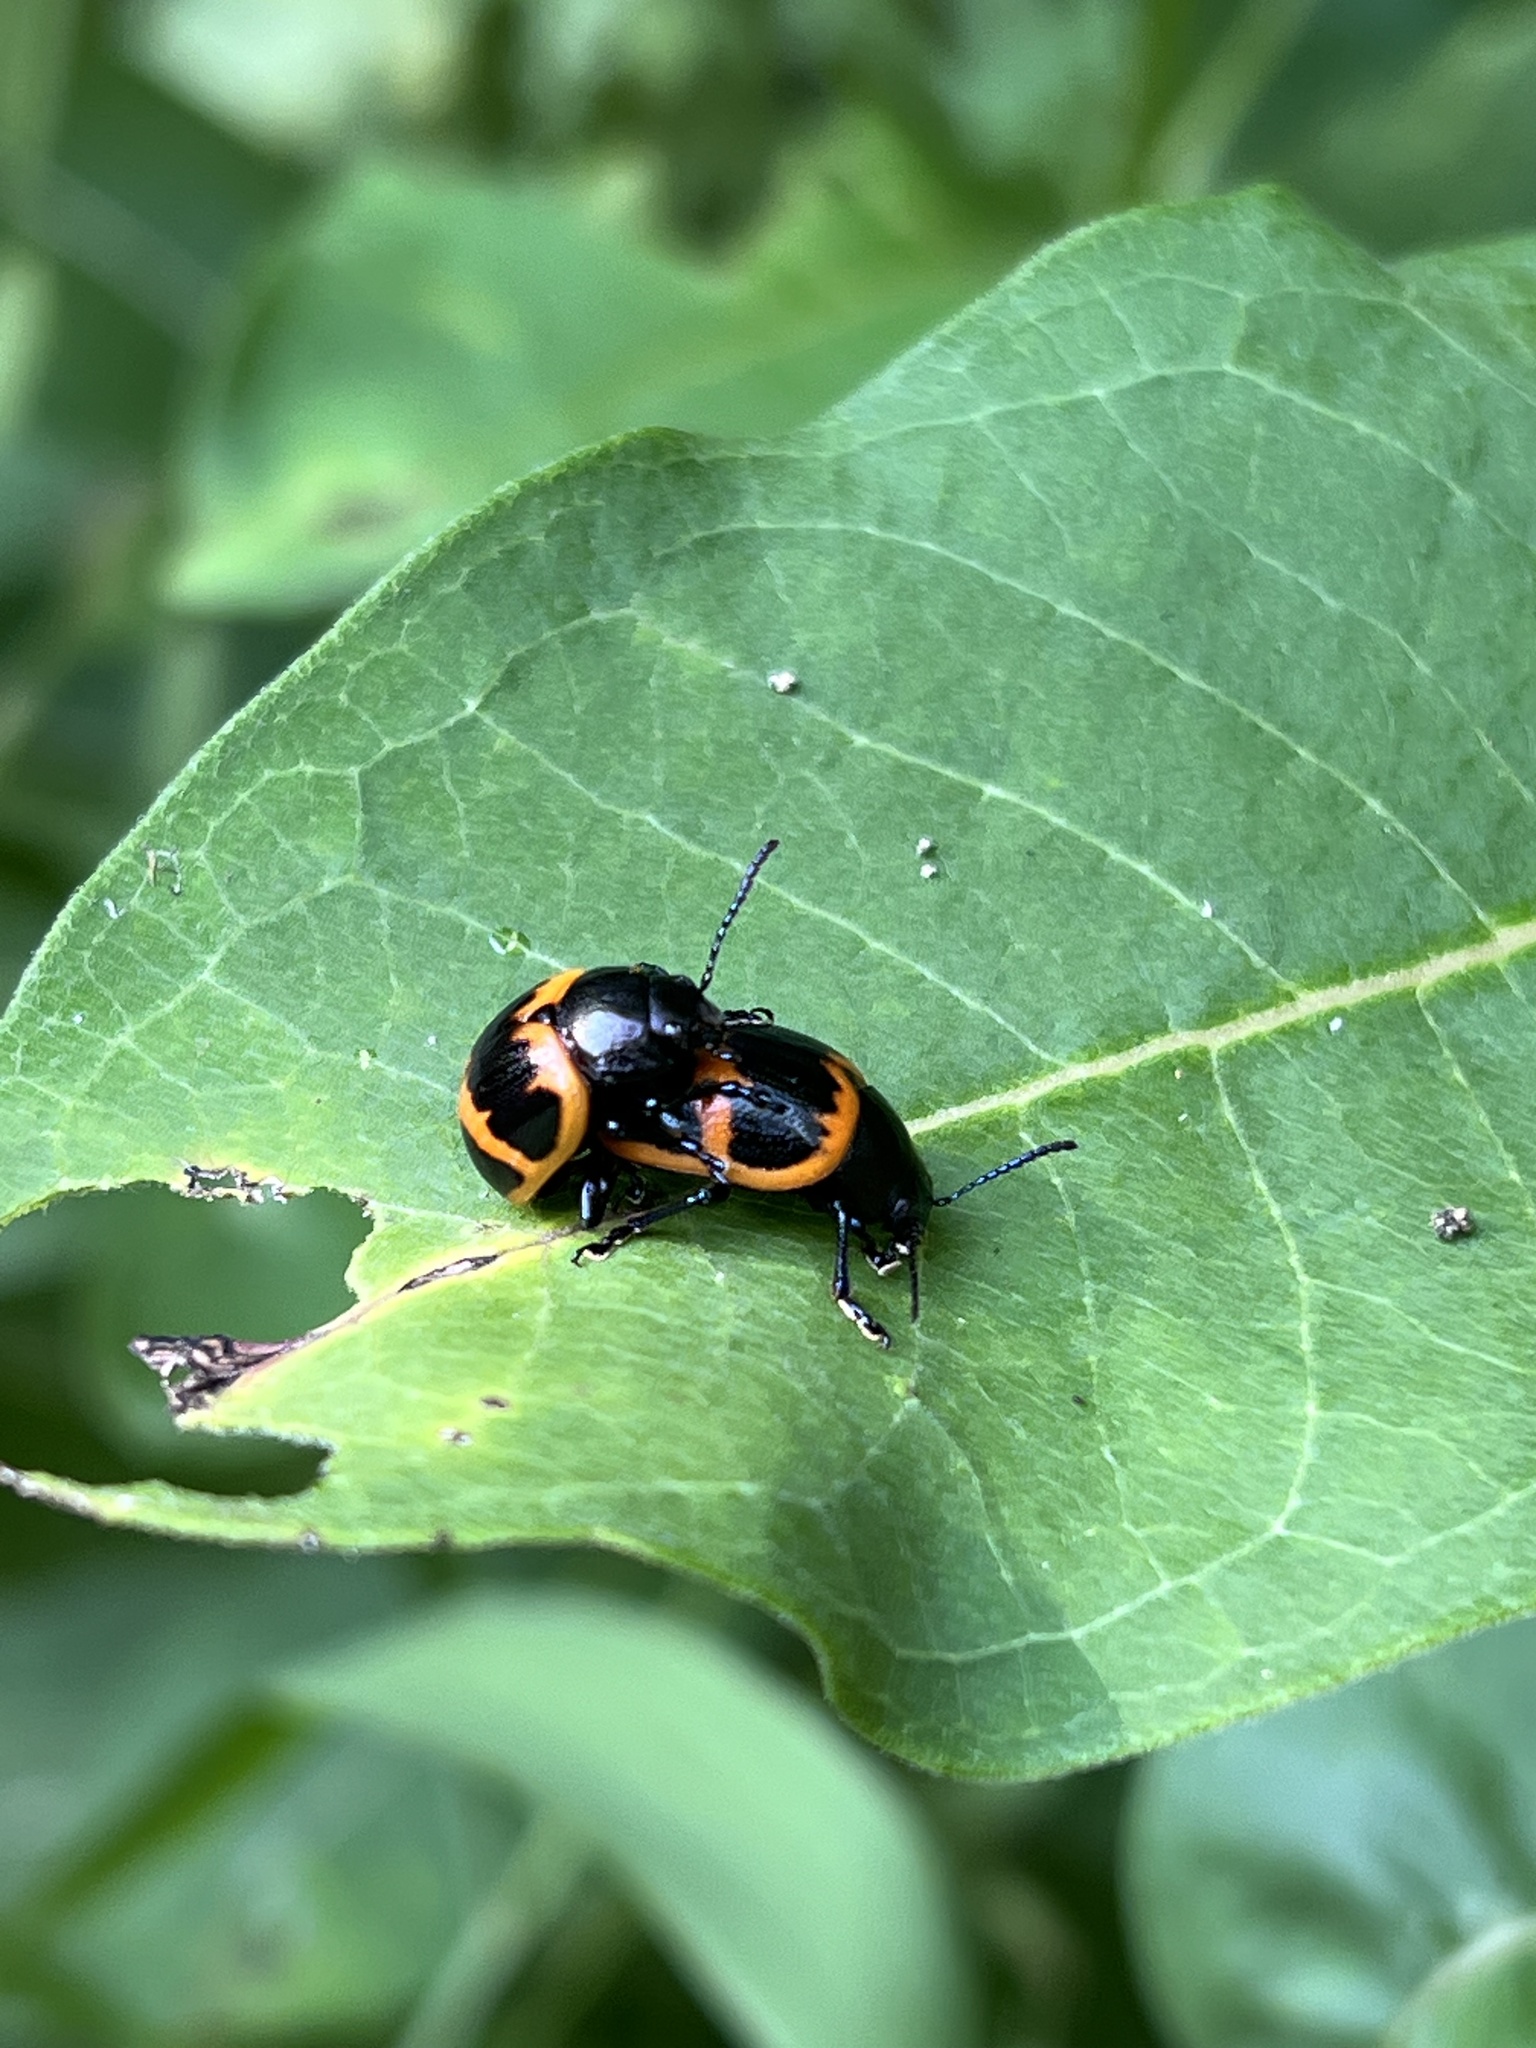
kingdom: Animalia
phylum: Arthropoda
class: Insecta
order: Coleoptera
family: Chrysomelidae
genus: Labidomera
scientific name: Labidomera clivicollis
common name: Swamp milkweed leaf beetle
